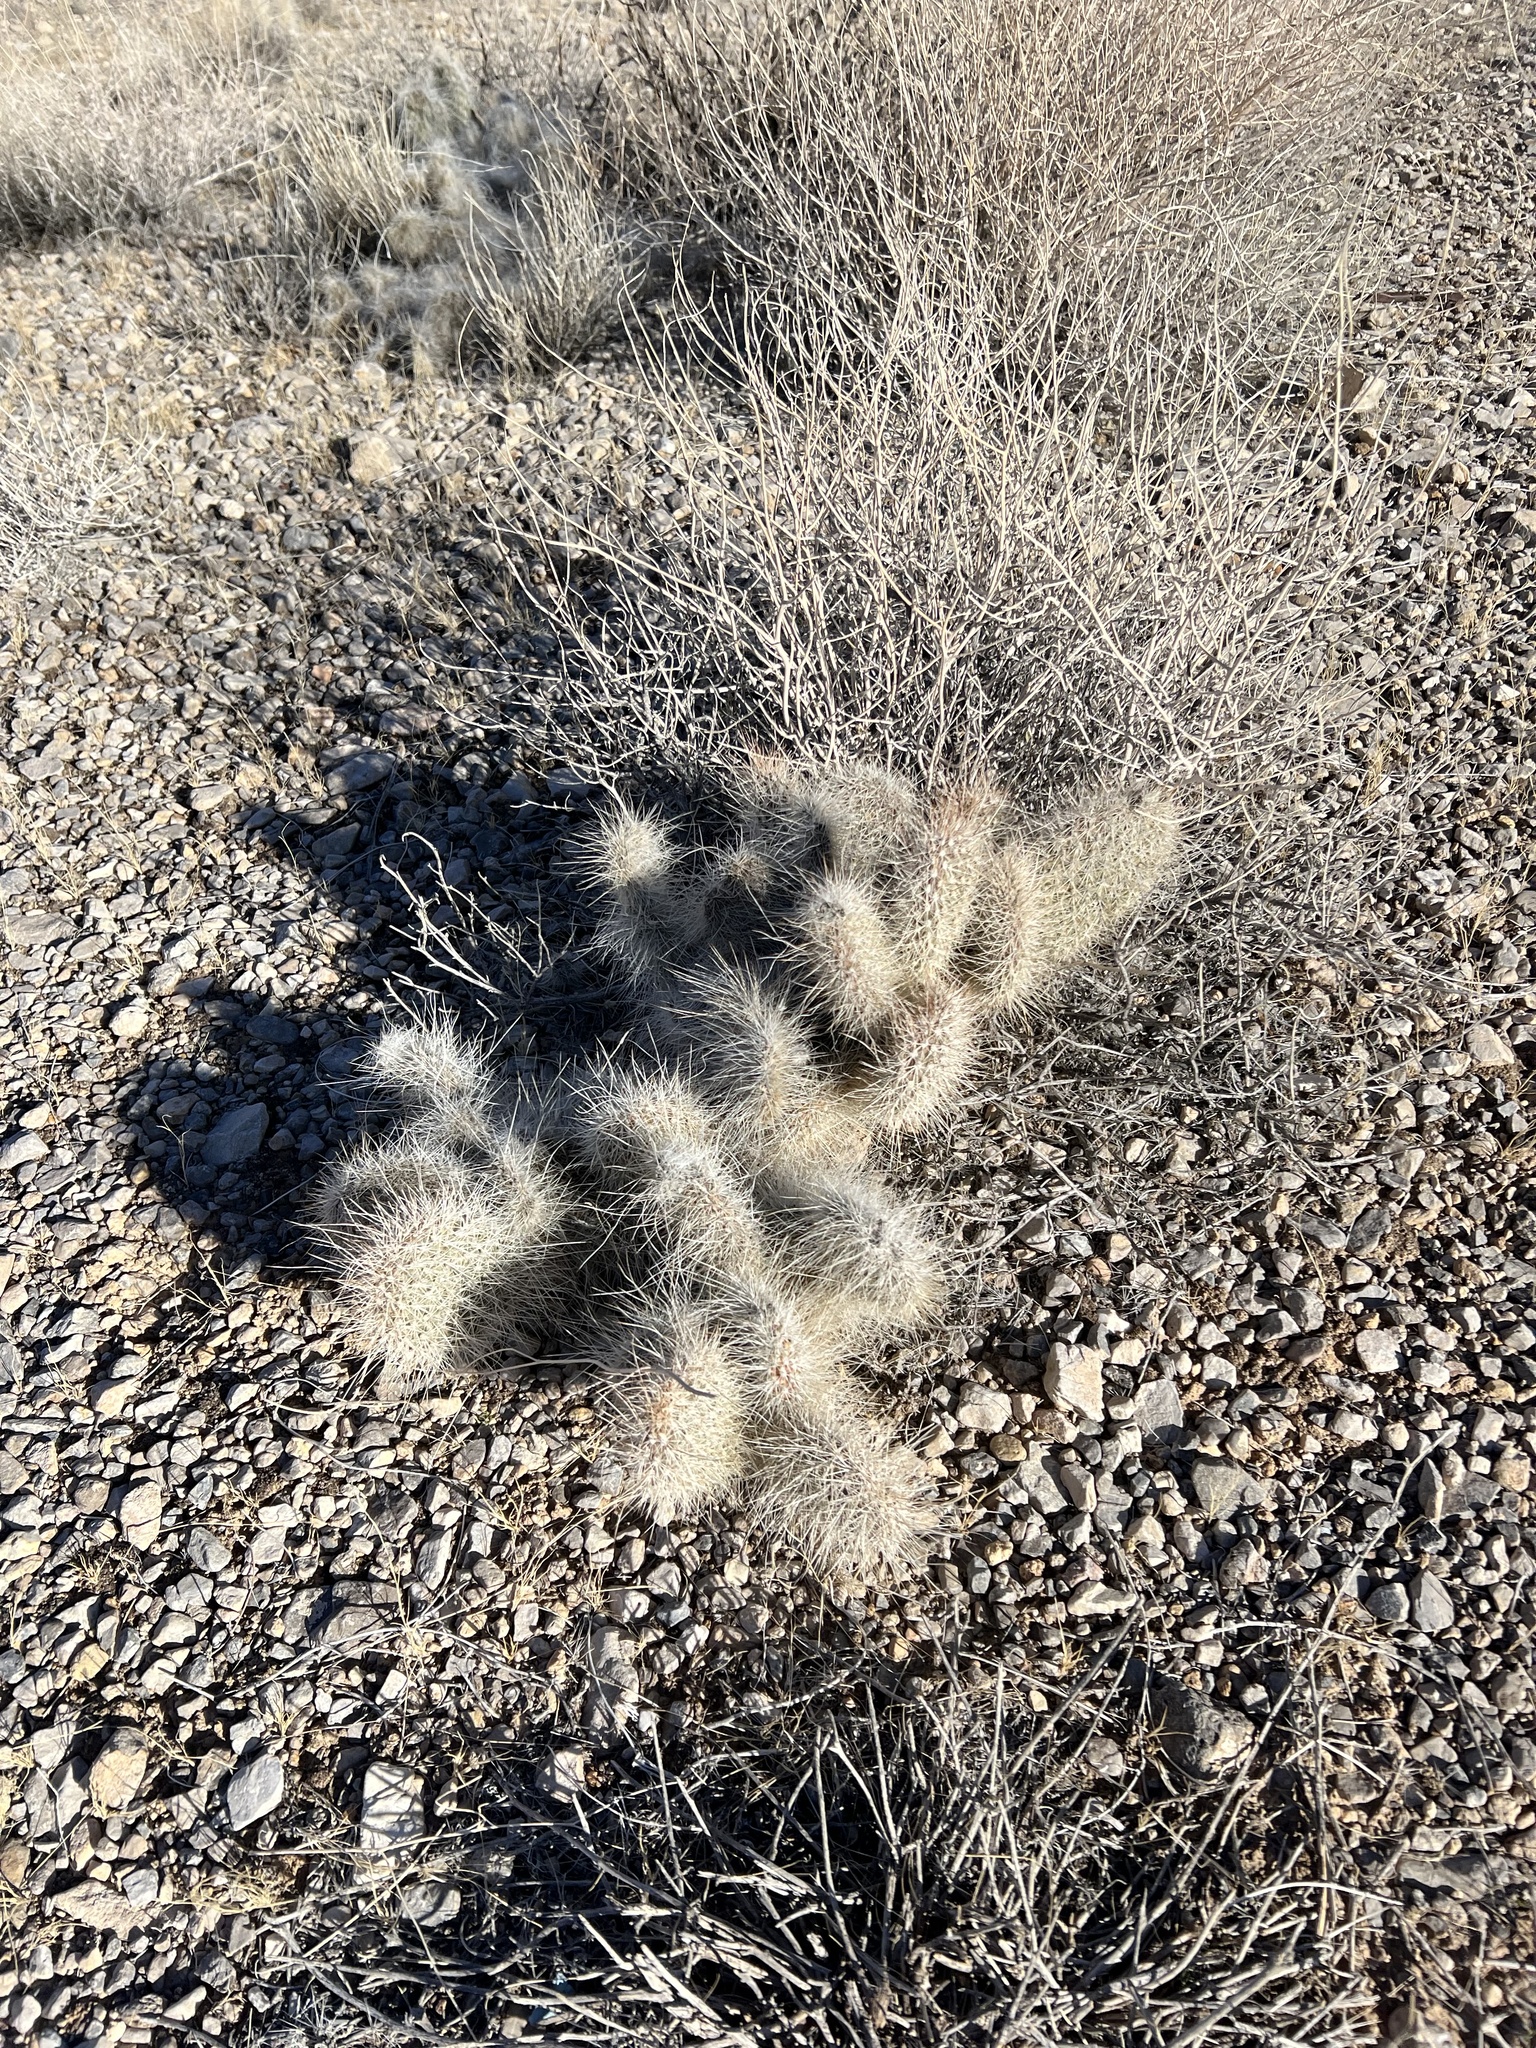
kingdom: Plantae
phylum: Tracheophyta
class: Magnoliopsida
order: Caryophyllales
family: Cactaceae
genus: Opuntia
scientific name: Opuntia polyacantha
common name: Plains prickly-pear
